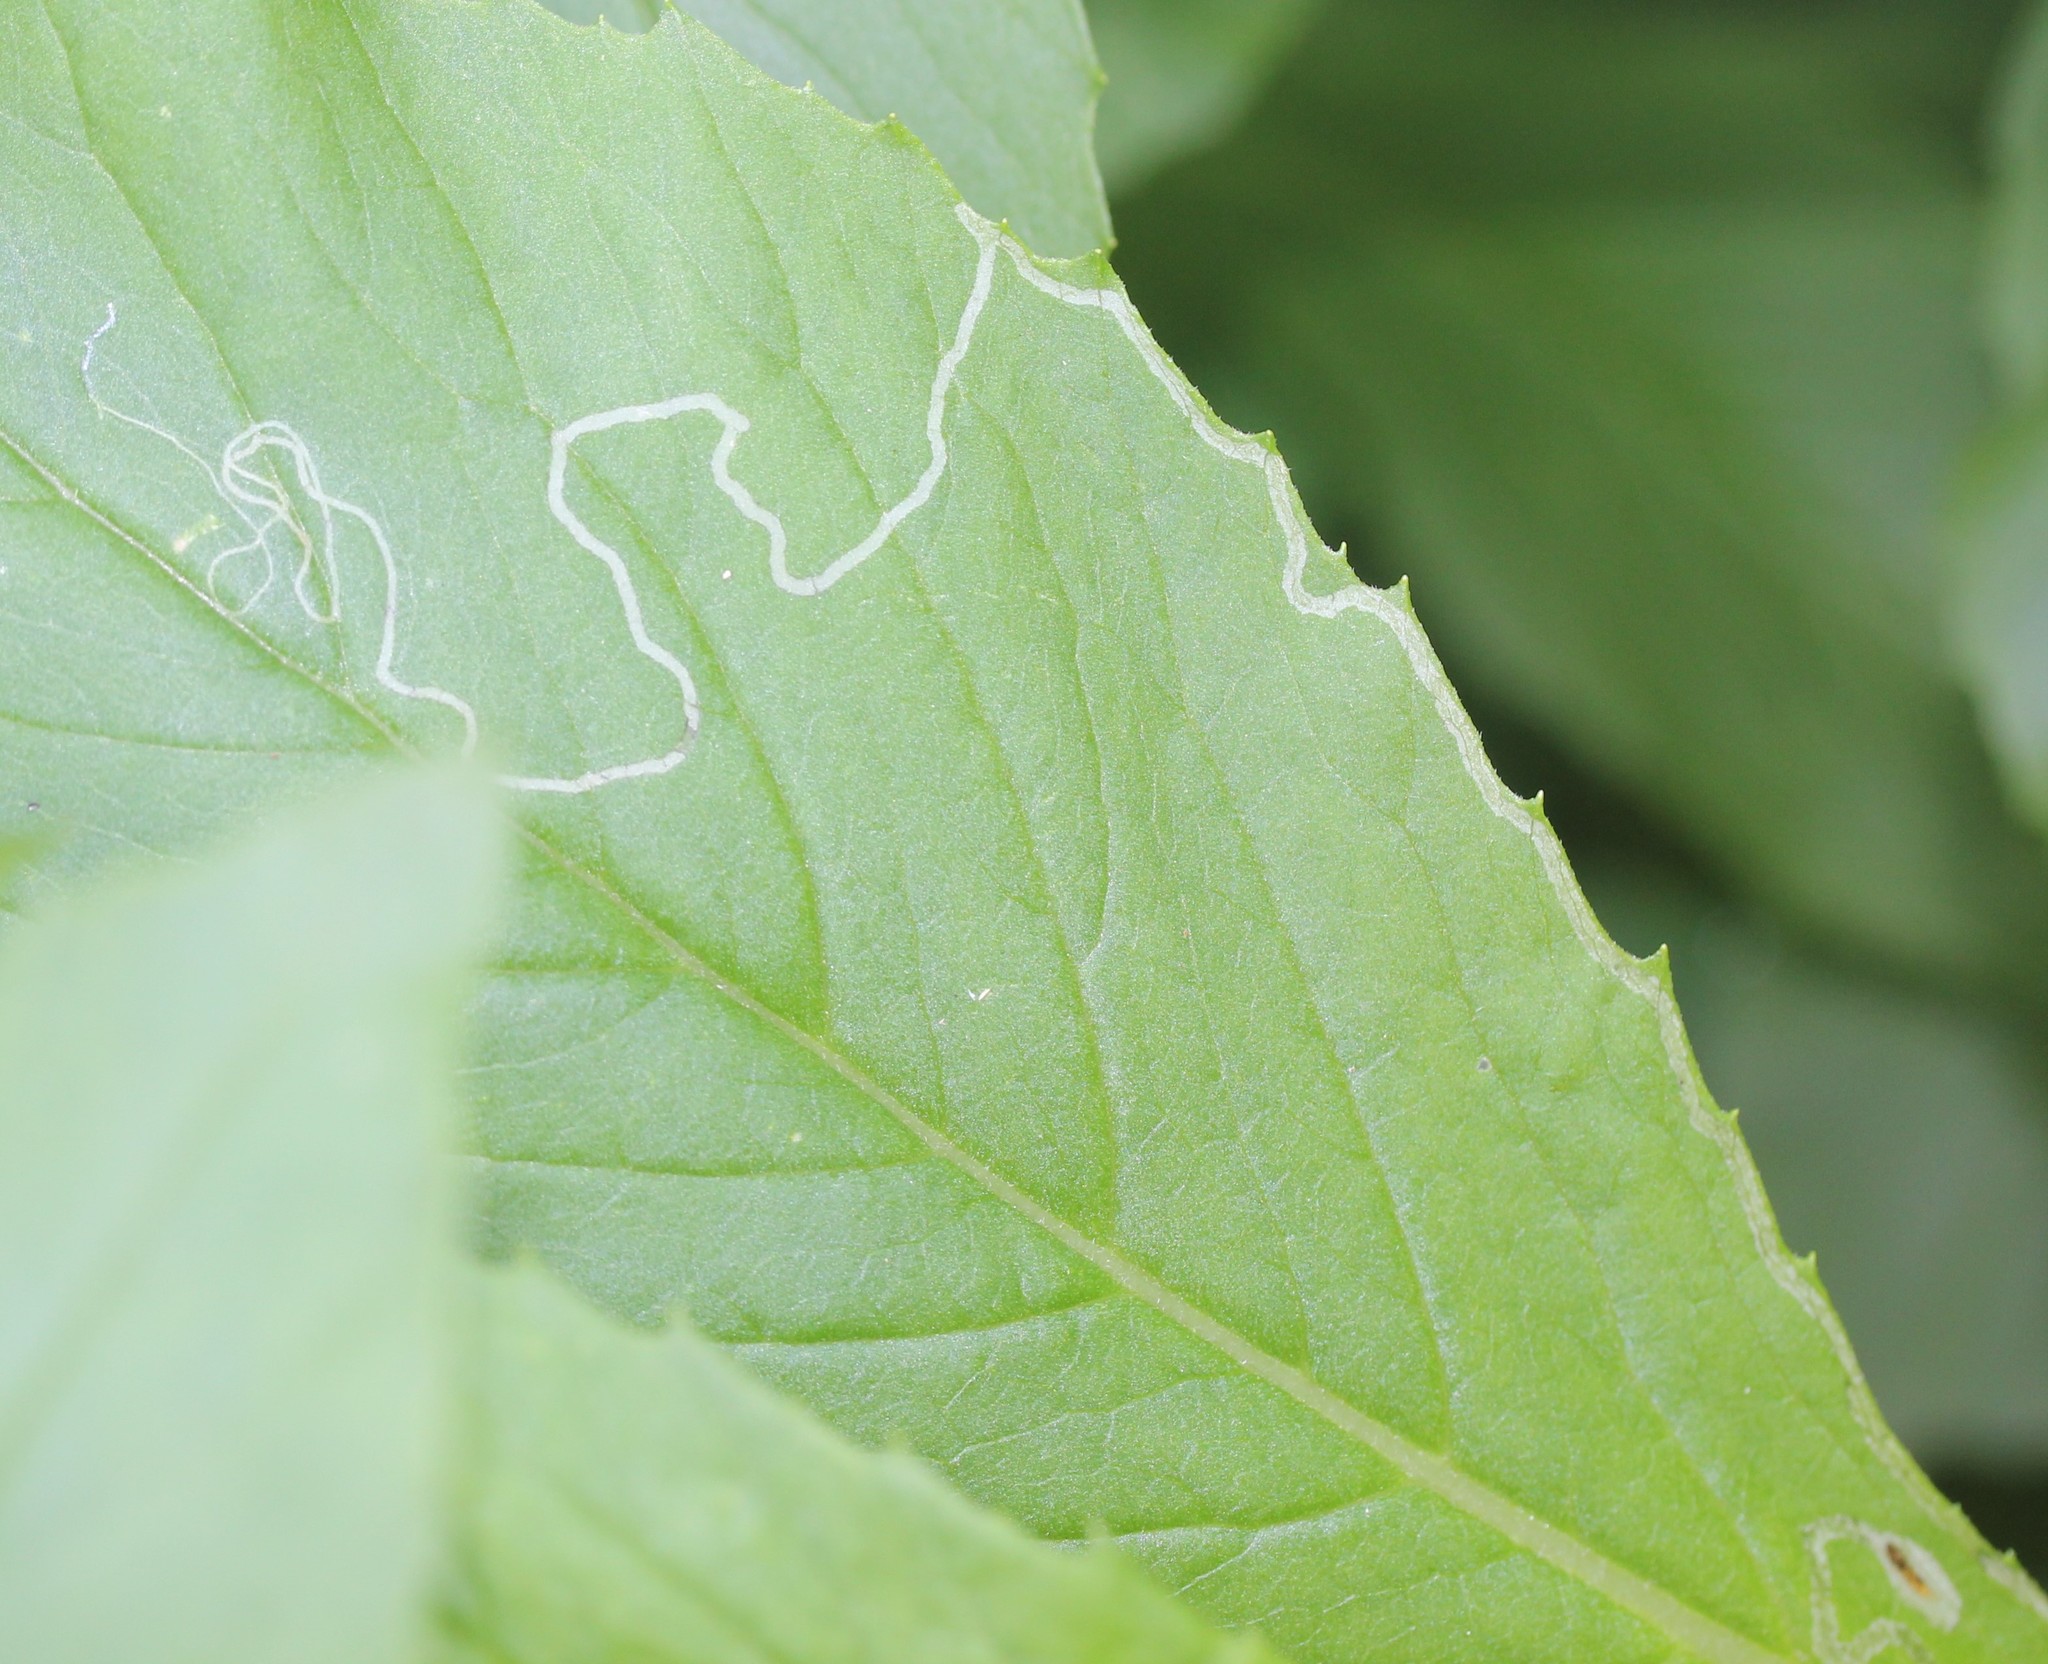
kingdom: Animalia
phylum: Arthropoda
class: Insecta
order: Lepidoptera
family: Gracillariidae
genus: Phyllocnistis
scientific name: Phyllocnistis insignis
